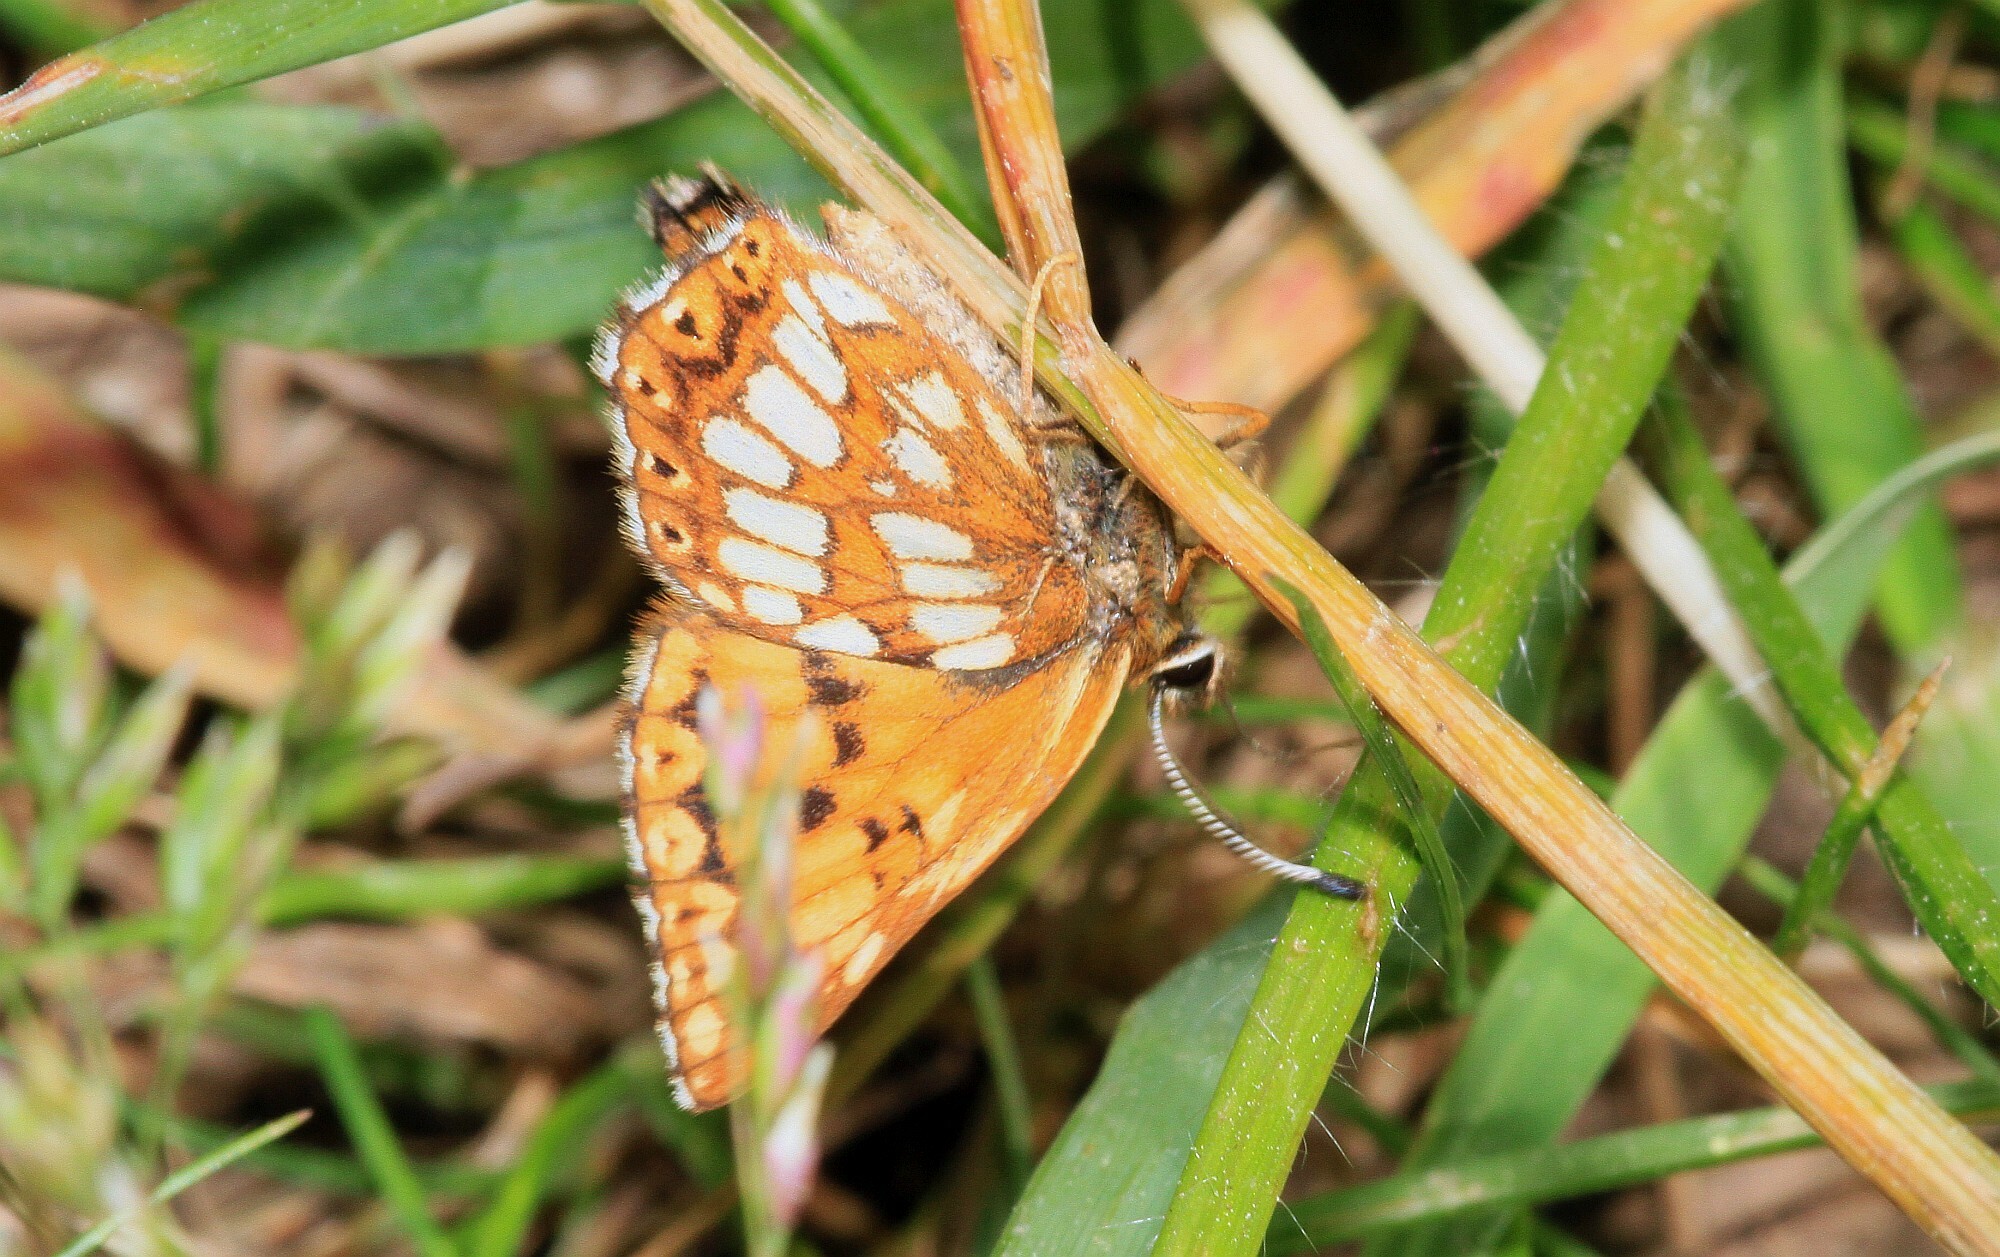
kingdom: Animalia
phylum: Arthropoda
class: Insecta
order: Lepidoptera
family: Riodinidae
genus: Hamearis
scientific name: Hamearis lucina
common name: Duke of burgundy fritillary
